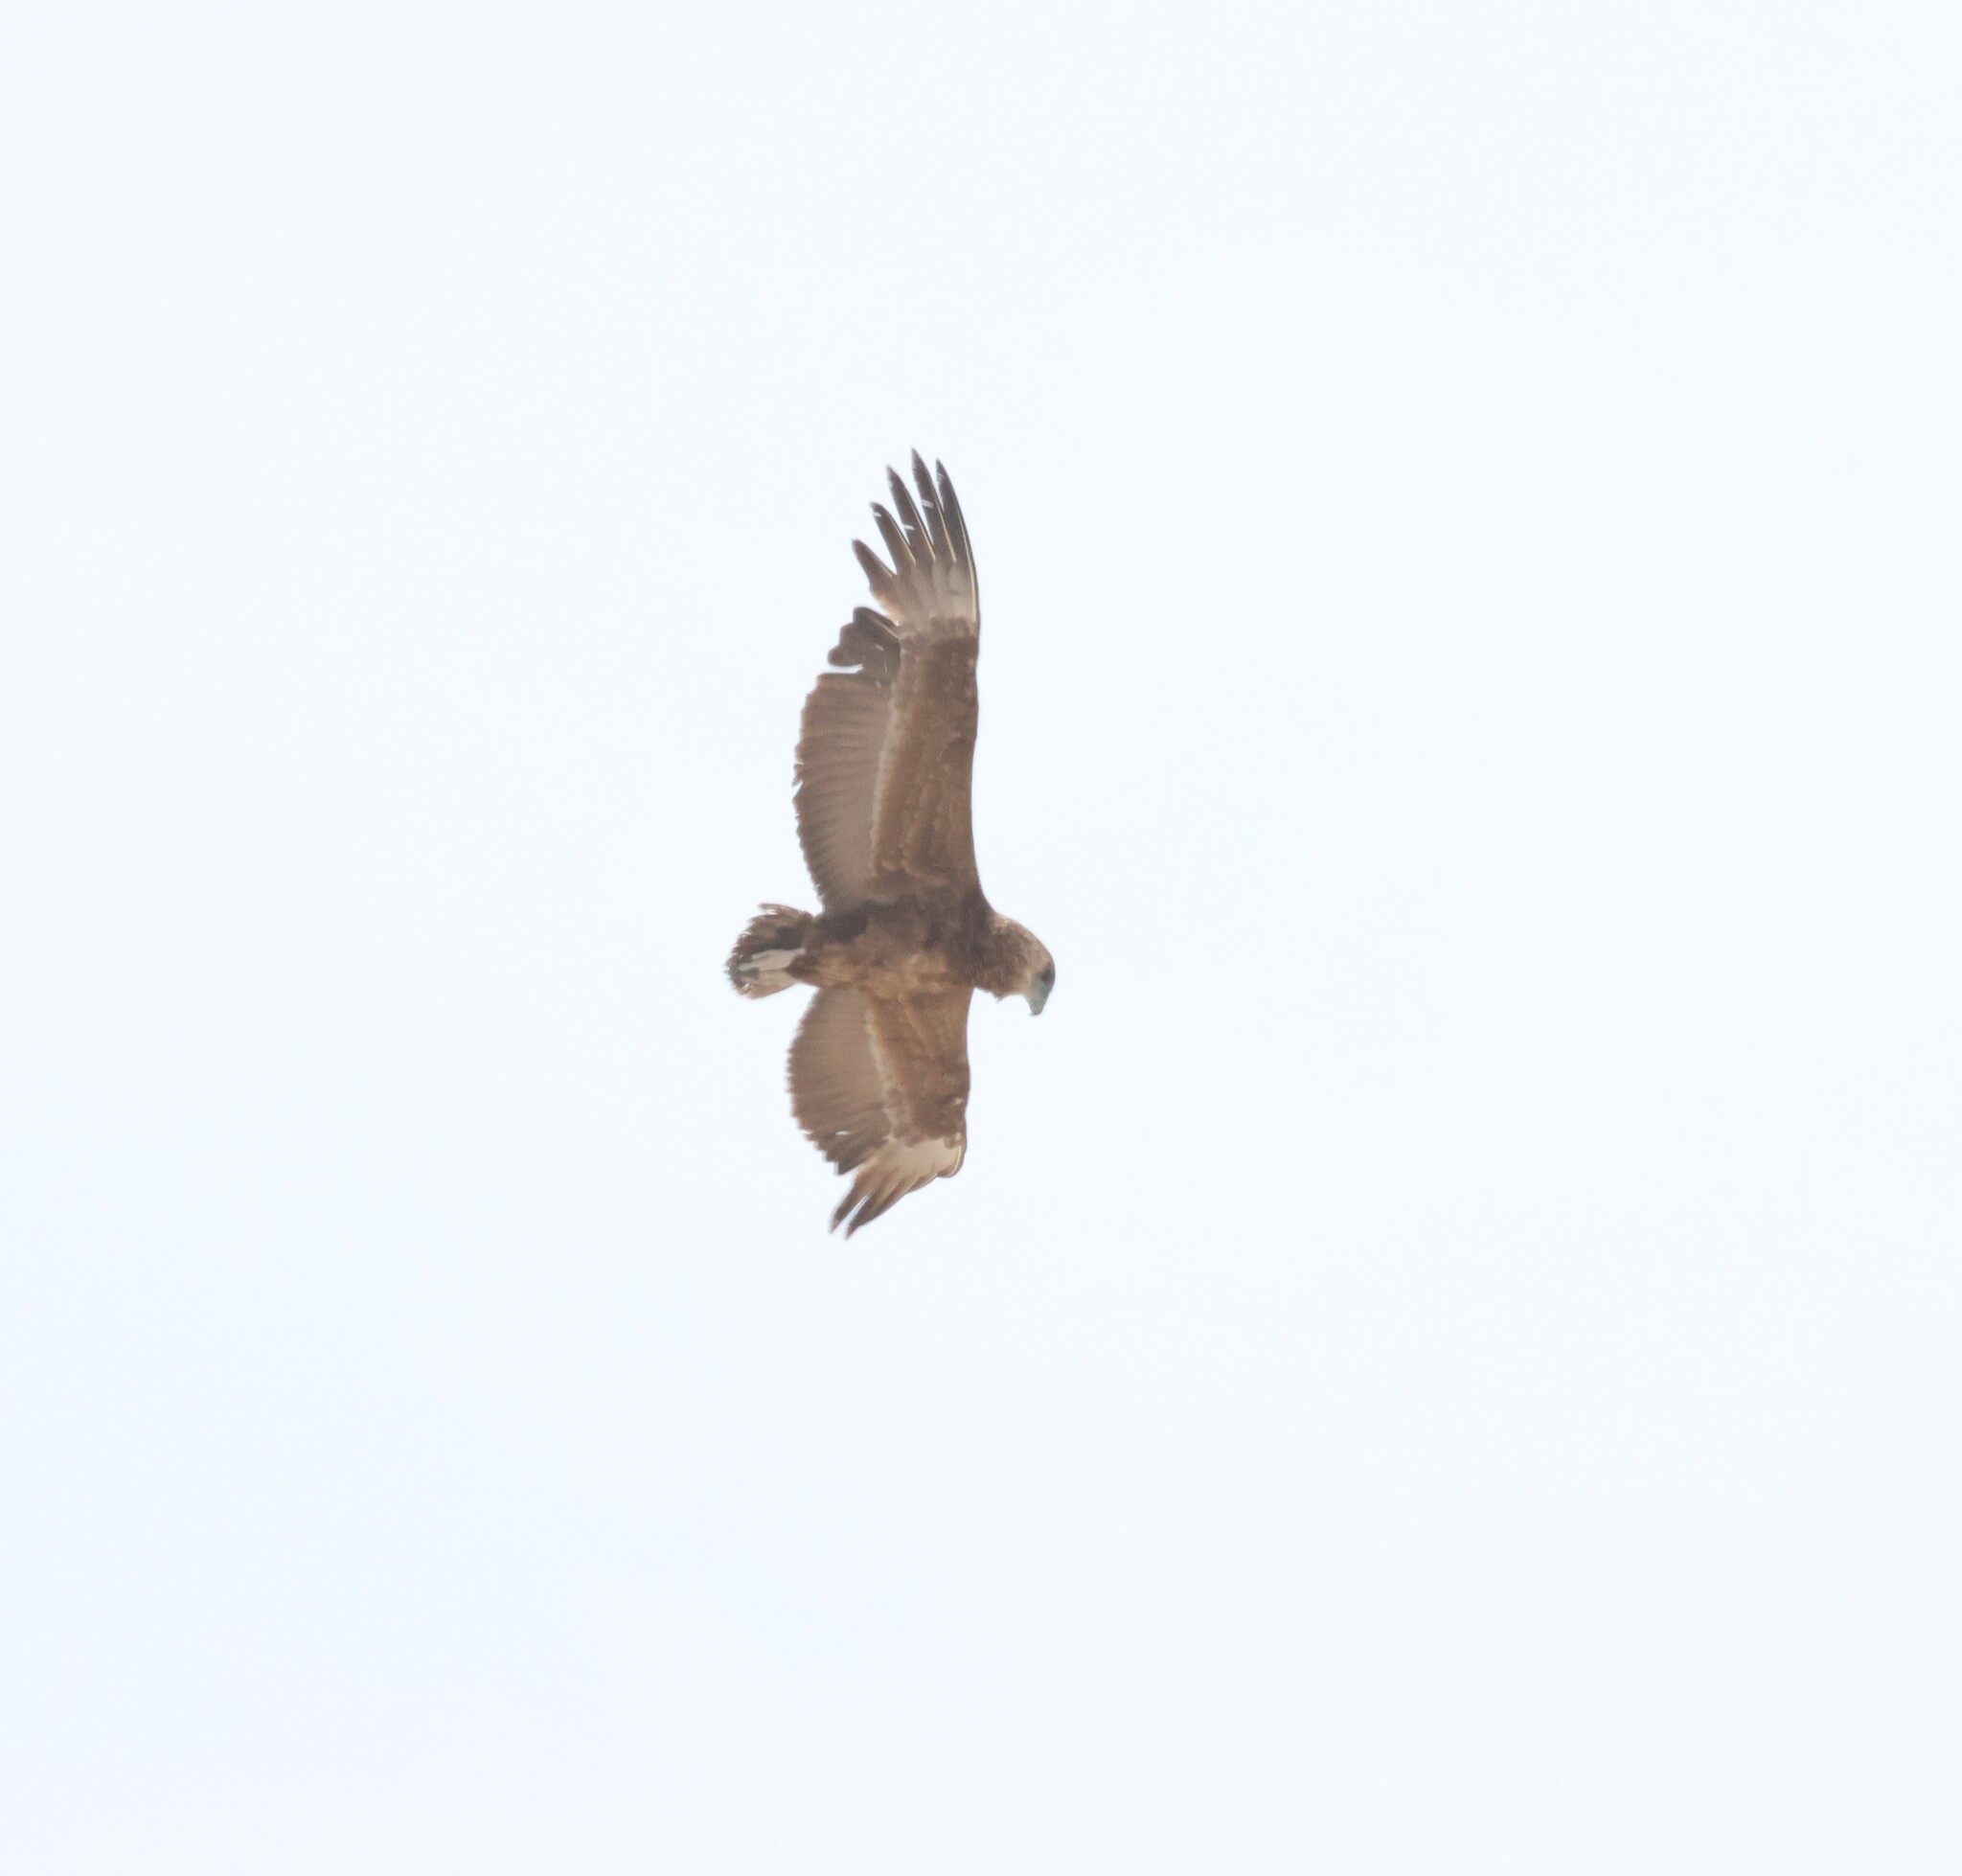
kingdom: Animalia
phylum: Chordata
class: Aves
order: Accipitriformes
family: Accipitridae
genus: Terathopius
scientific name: Terathopius ecaudatus
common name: Bateleur
